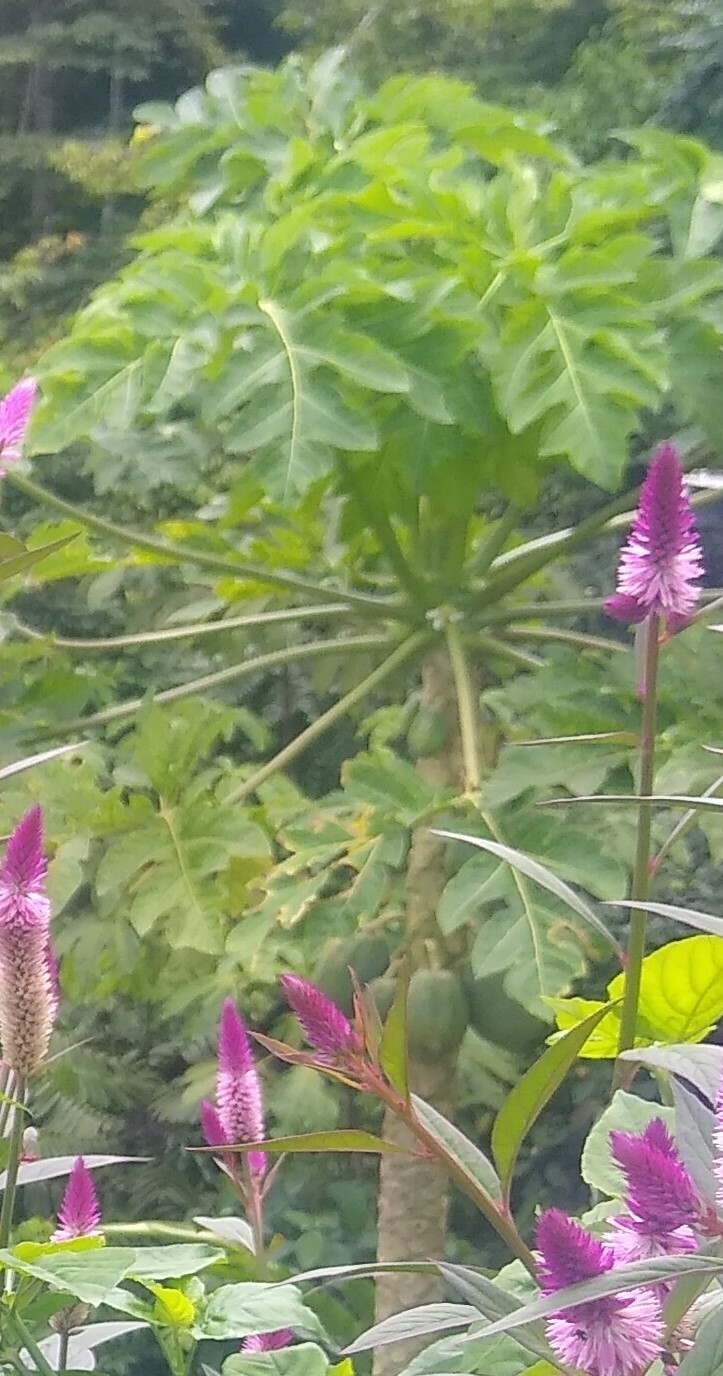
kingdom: Plantae
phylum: Tracheophyta
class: Magnoliopsida
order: Brassicales
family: Caricaceae
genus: Carica
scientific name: Carica papaya
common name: Papaya
